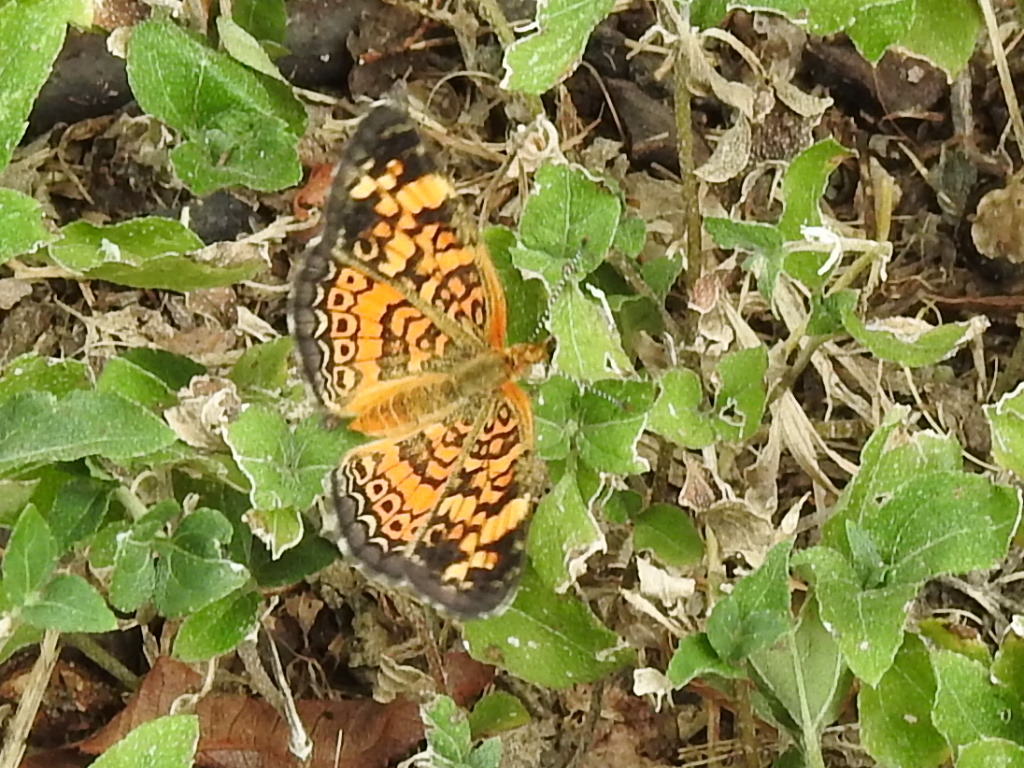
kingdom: Animalia
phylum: Arthropoda
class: Insecta
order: Lepidoptera
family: Nymphalidae
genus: Phyciodes
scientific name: Phyciodes tharos
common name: Pearl crescent
